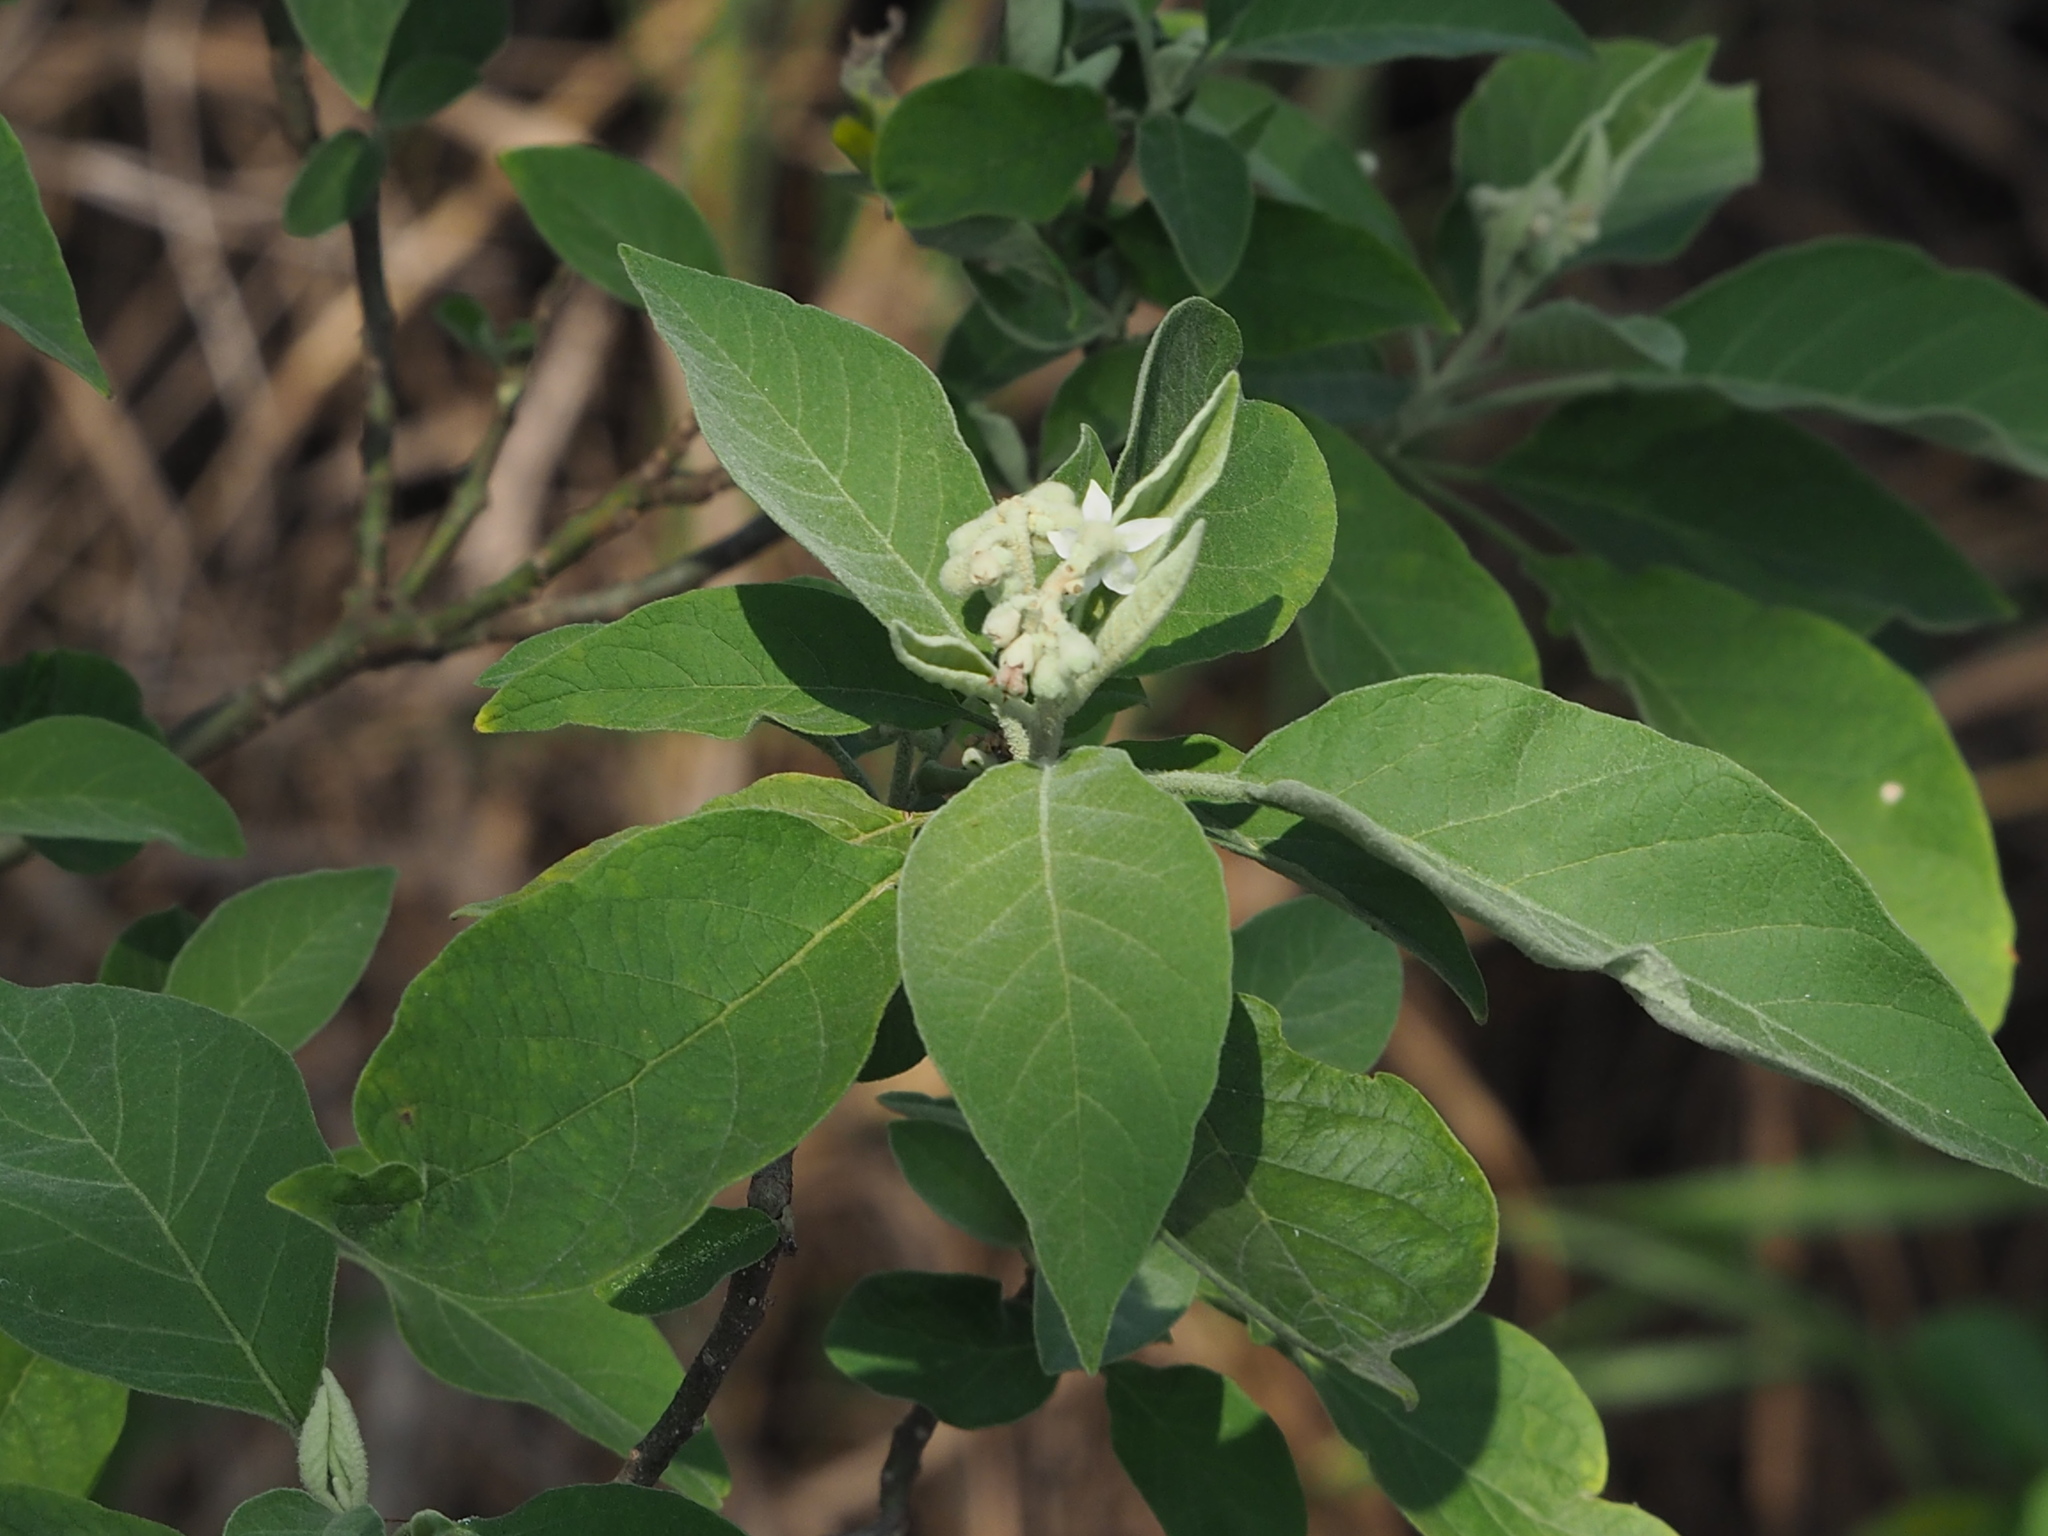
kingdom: Plantae
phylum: Tracheophyta
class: Magnoliopsida
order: Solanales
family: Solanaceae
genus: Solanum
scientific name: Solanum erianthum
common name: Tobacco-tree
